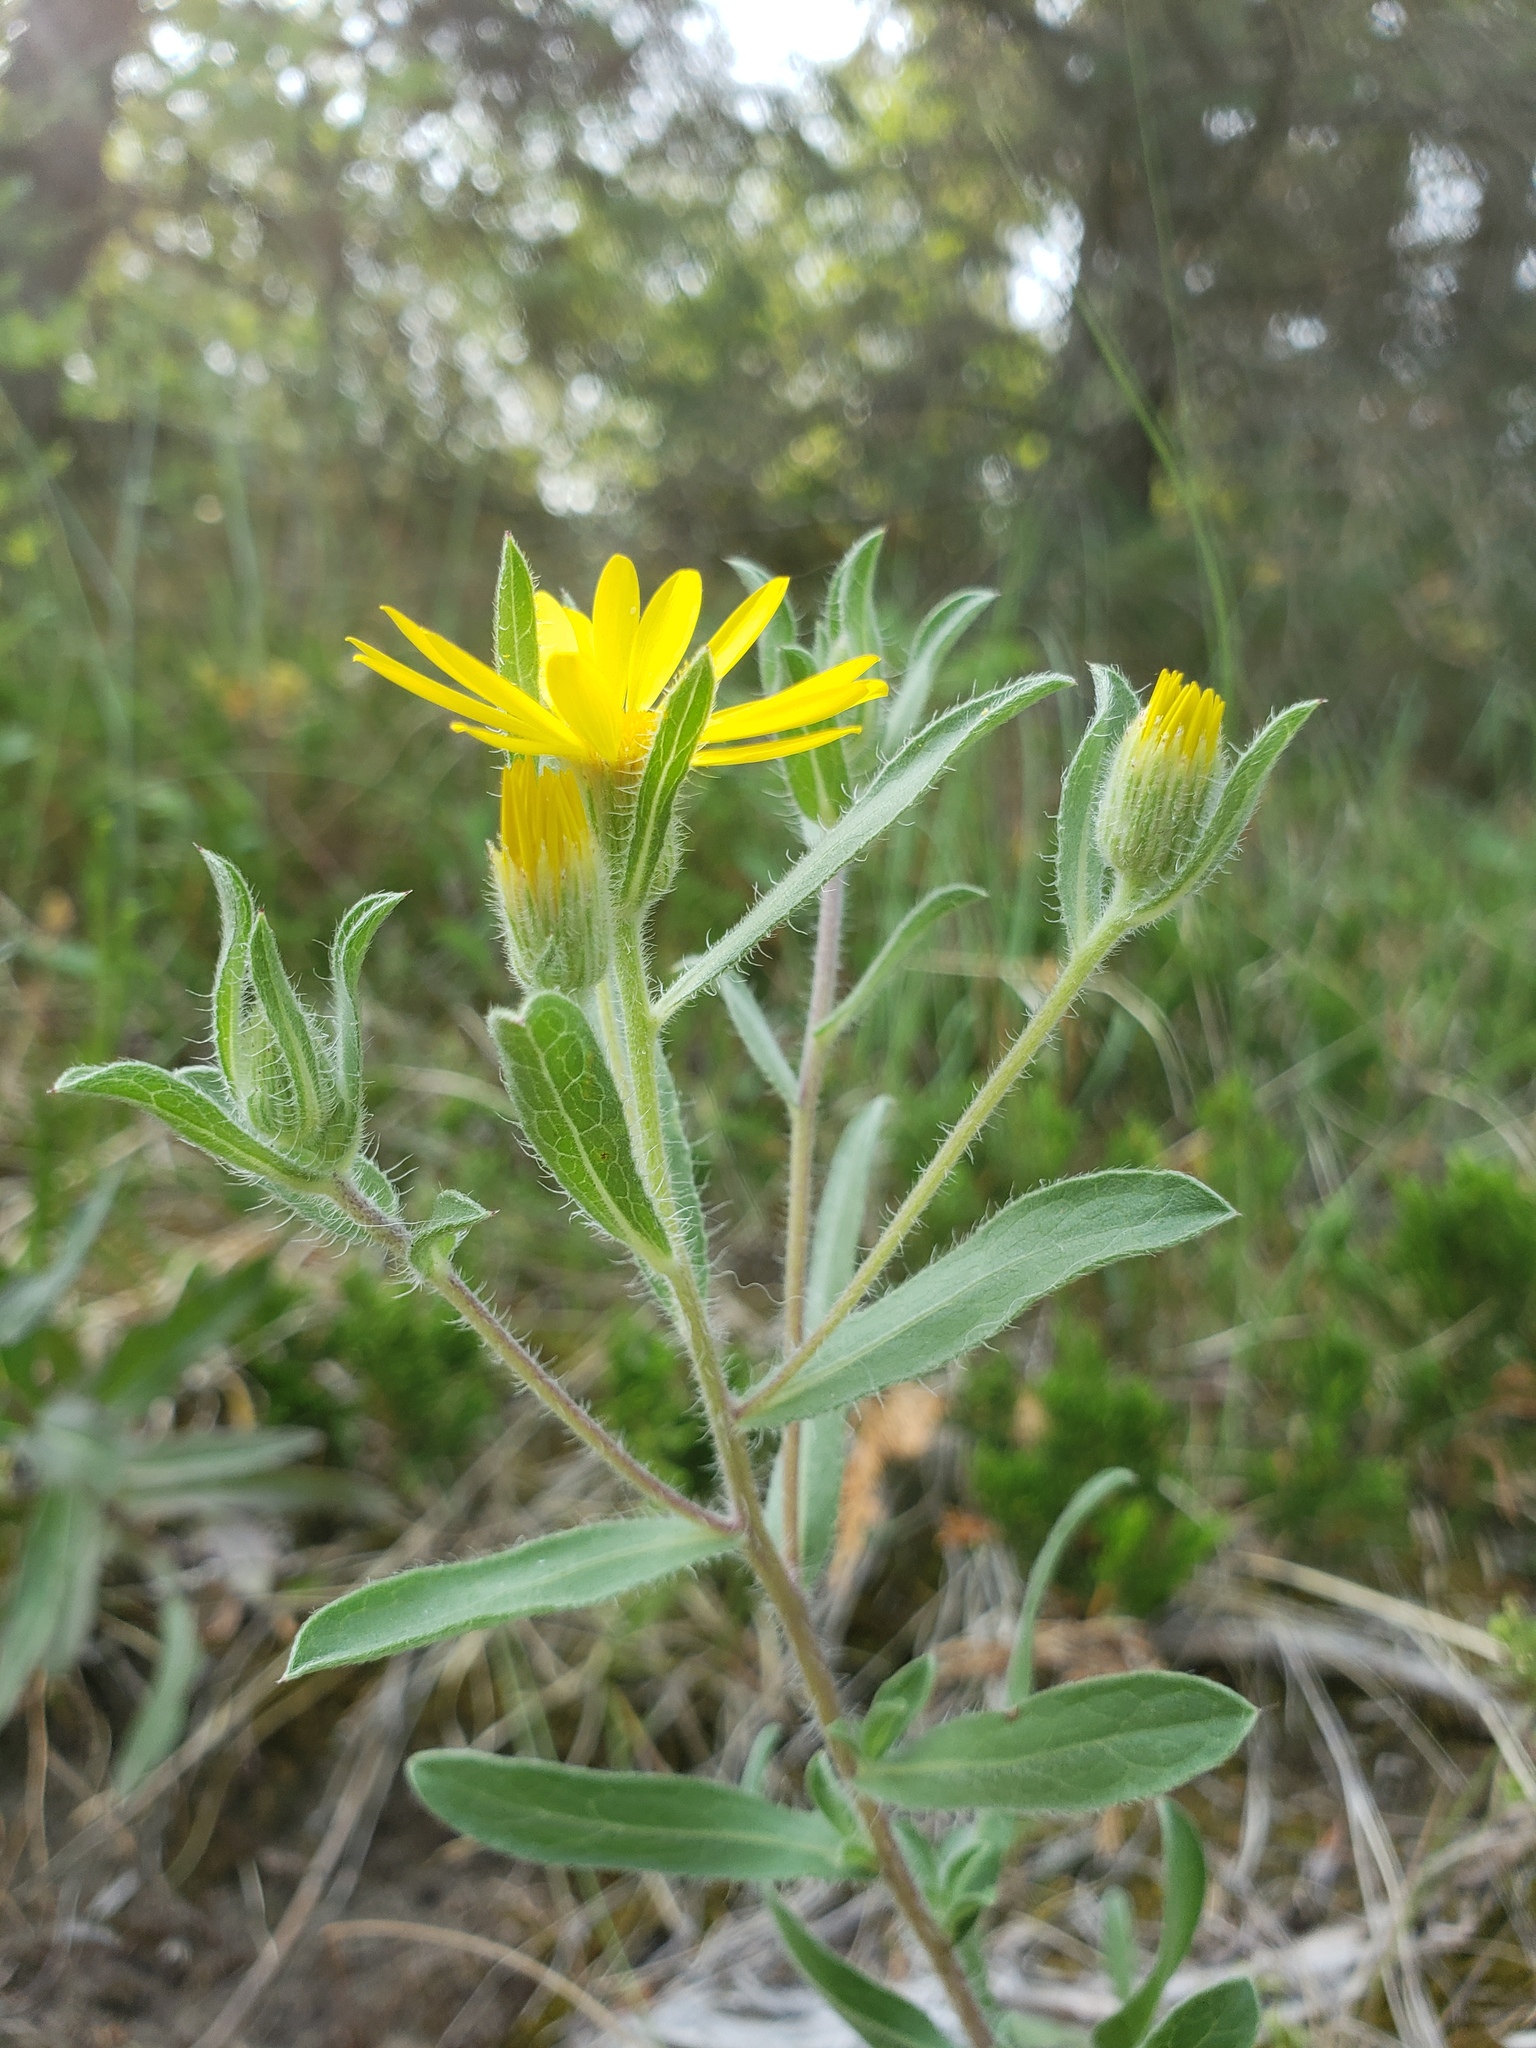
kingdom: Plantae
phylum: Tracheophyta
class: Magnoliopsida
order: Asterales
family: Asteraceae
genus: Heterotheca
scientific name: Heterotheca villosa
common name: Hairy false goldenaster
